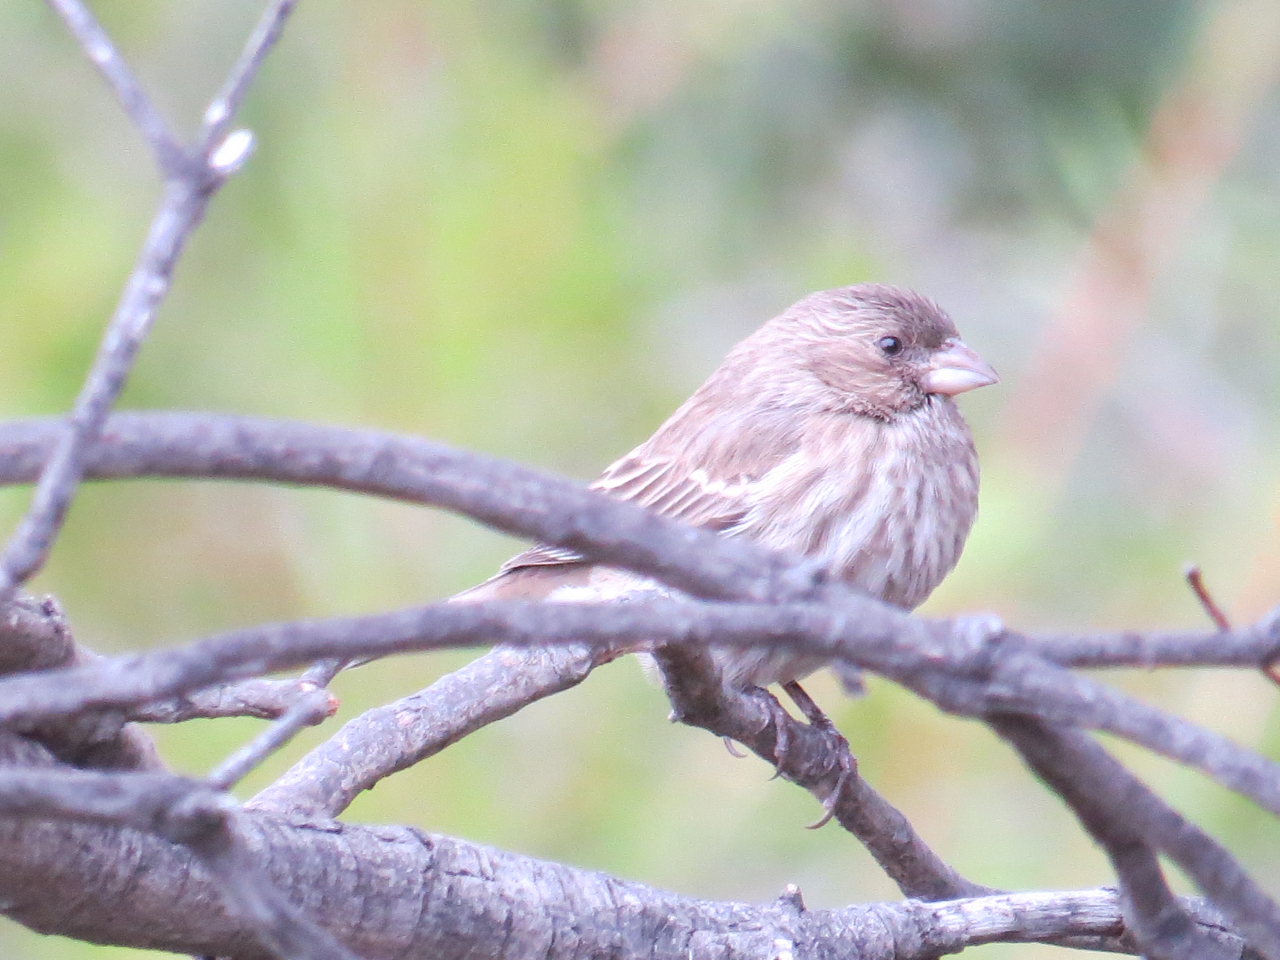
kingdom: Animalia
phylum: Chordata
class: Aves
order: Passeriformes
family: Fringillidae
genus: Haemorhous
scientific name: Haemorhous mexicanus
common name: House finch
